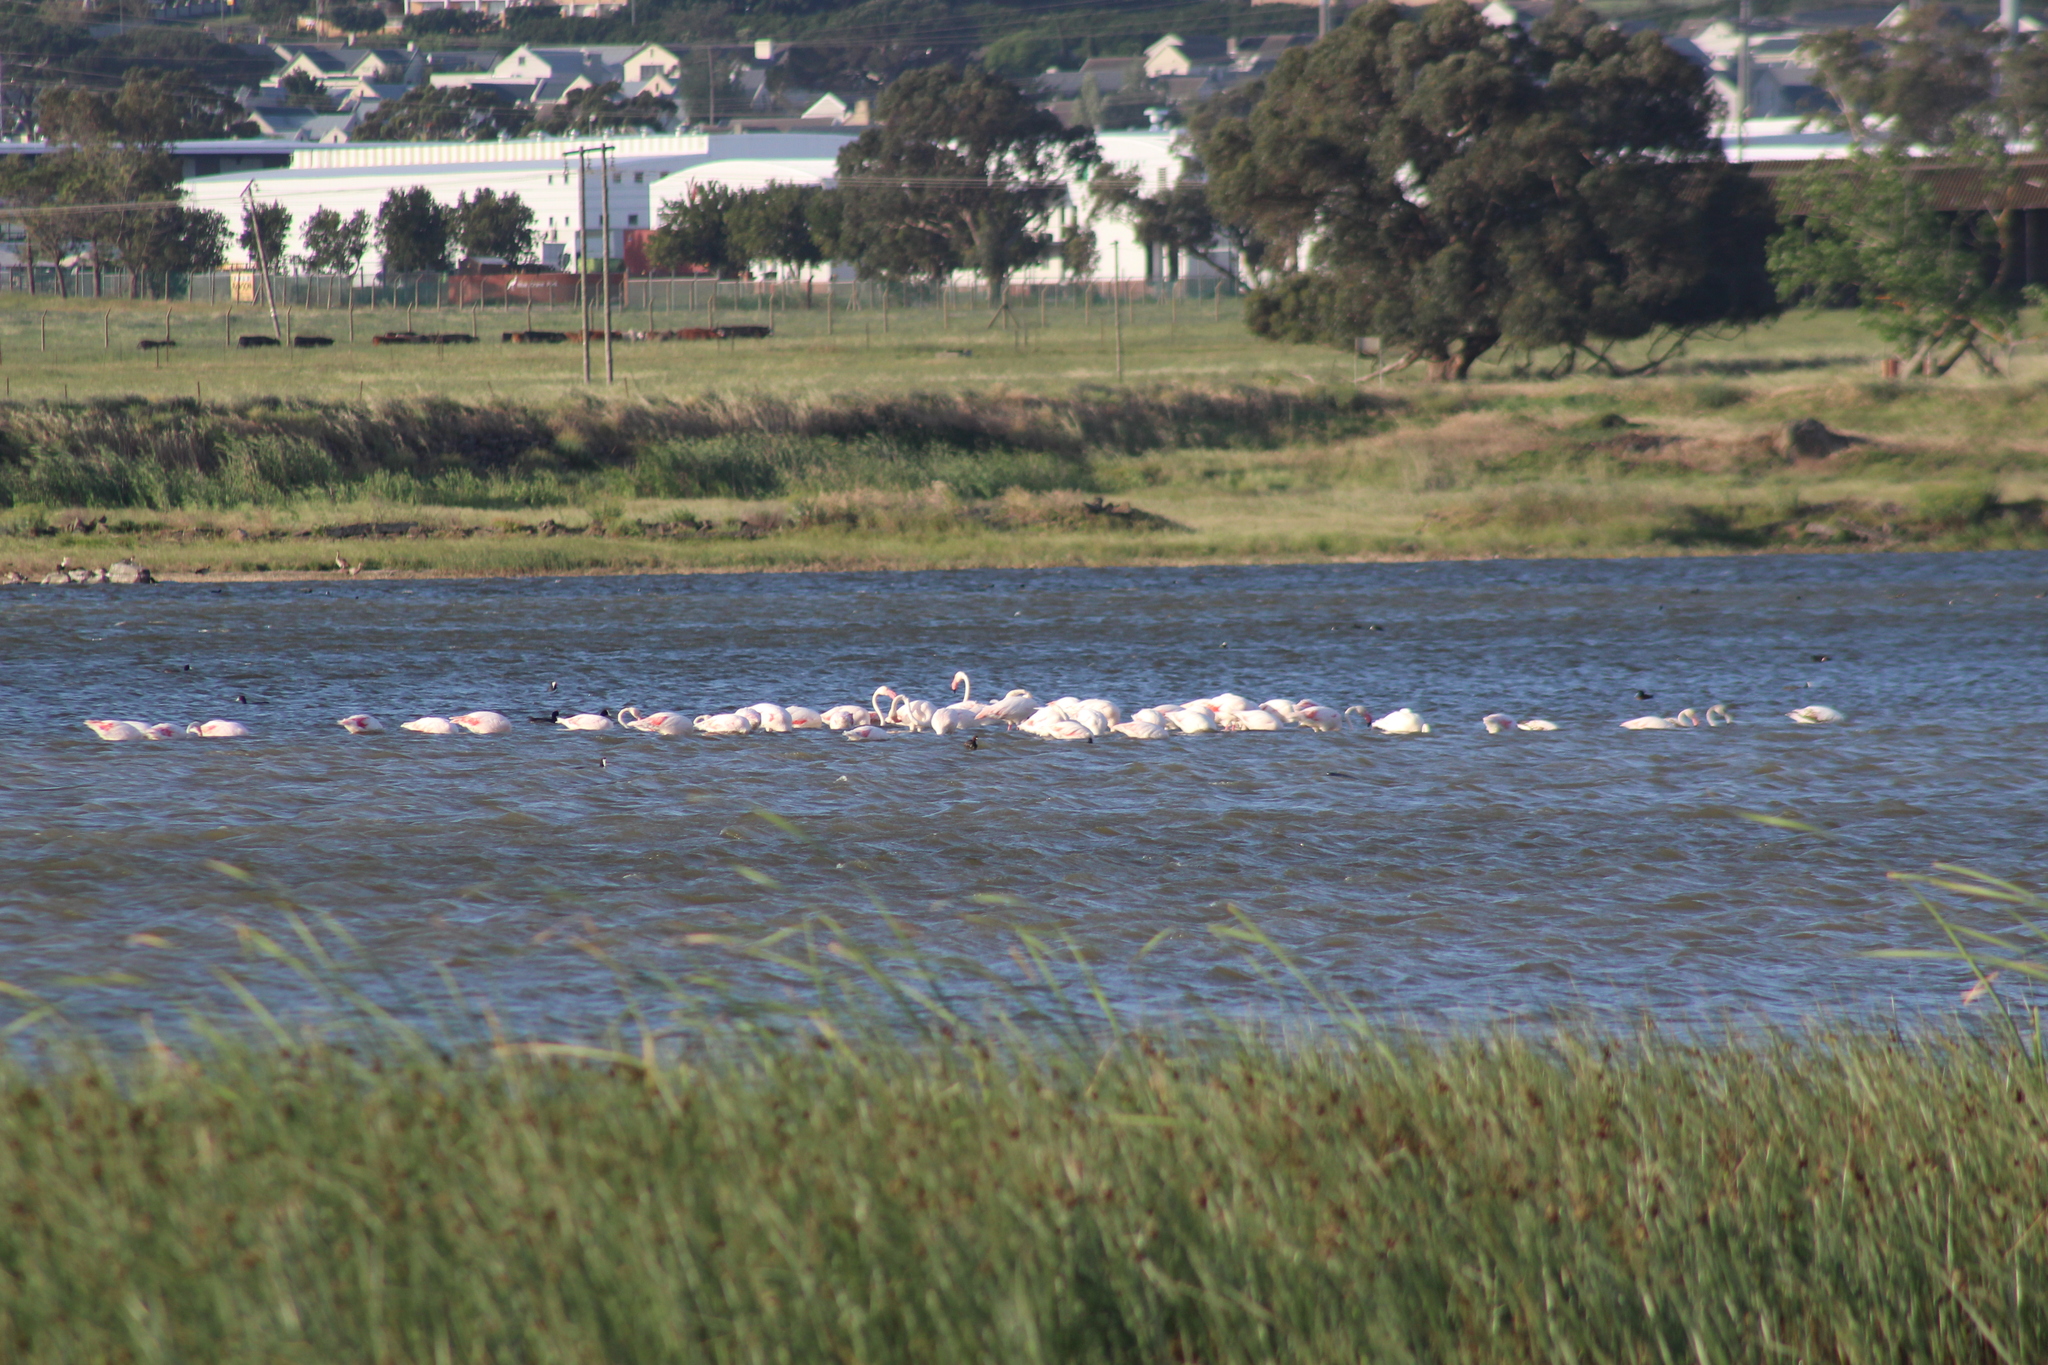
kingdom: Animalia
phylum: Chordata
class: Aves
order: Phoenicopteriformes
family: Phoenicopteridae
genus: Phoenicopterus
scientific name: Phoenicopterus roseus
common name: Greater flamingo
